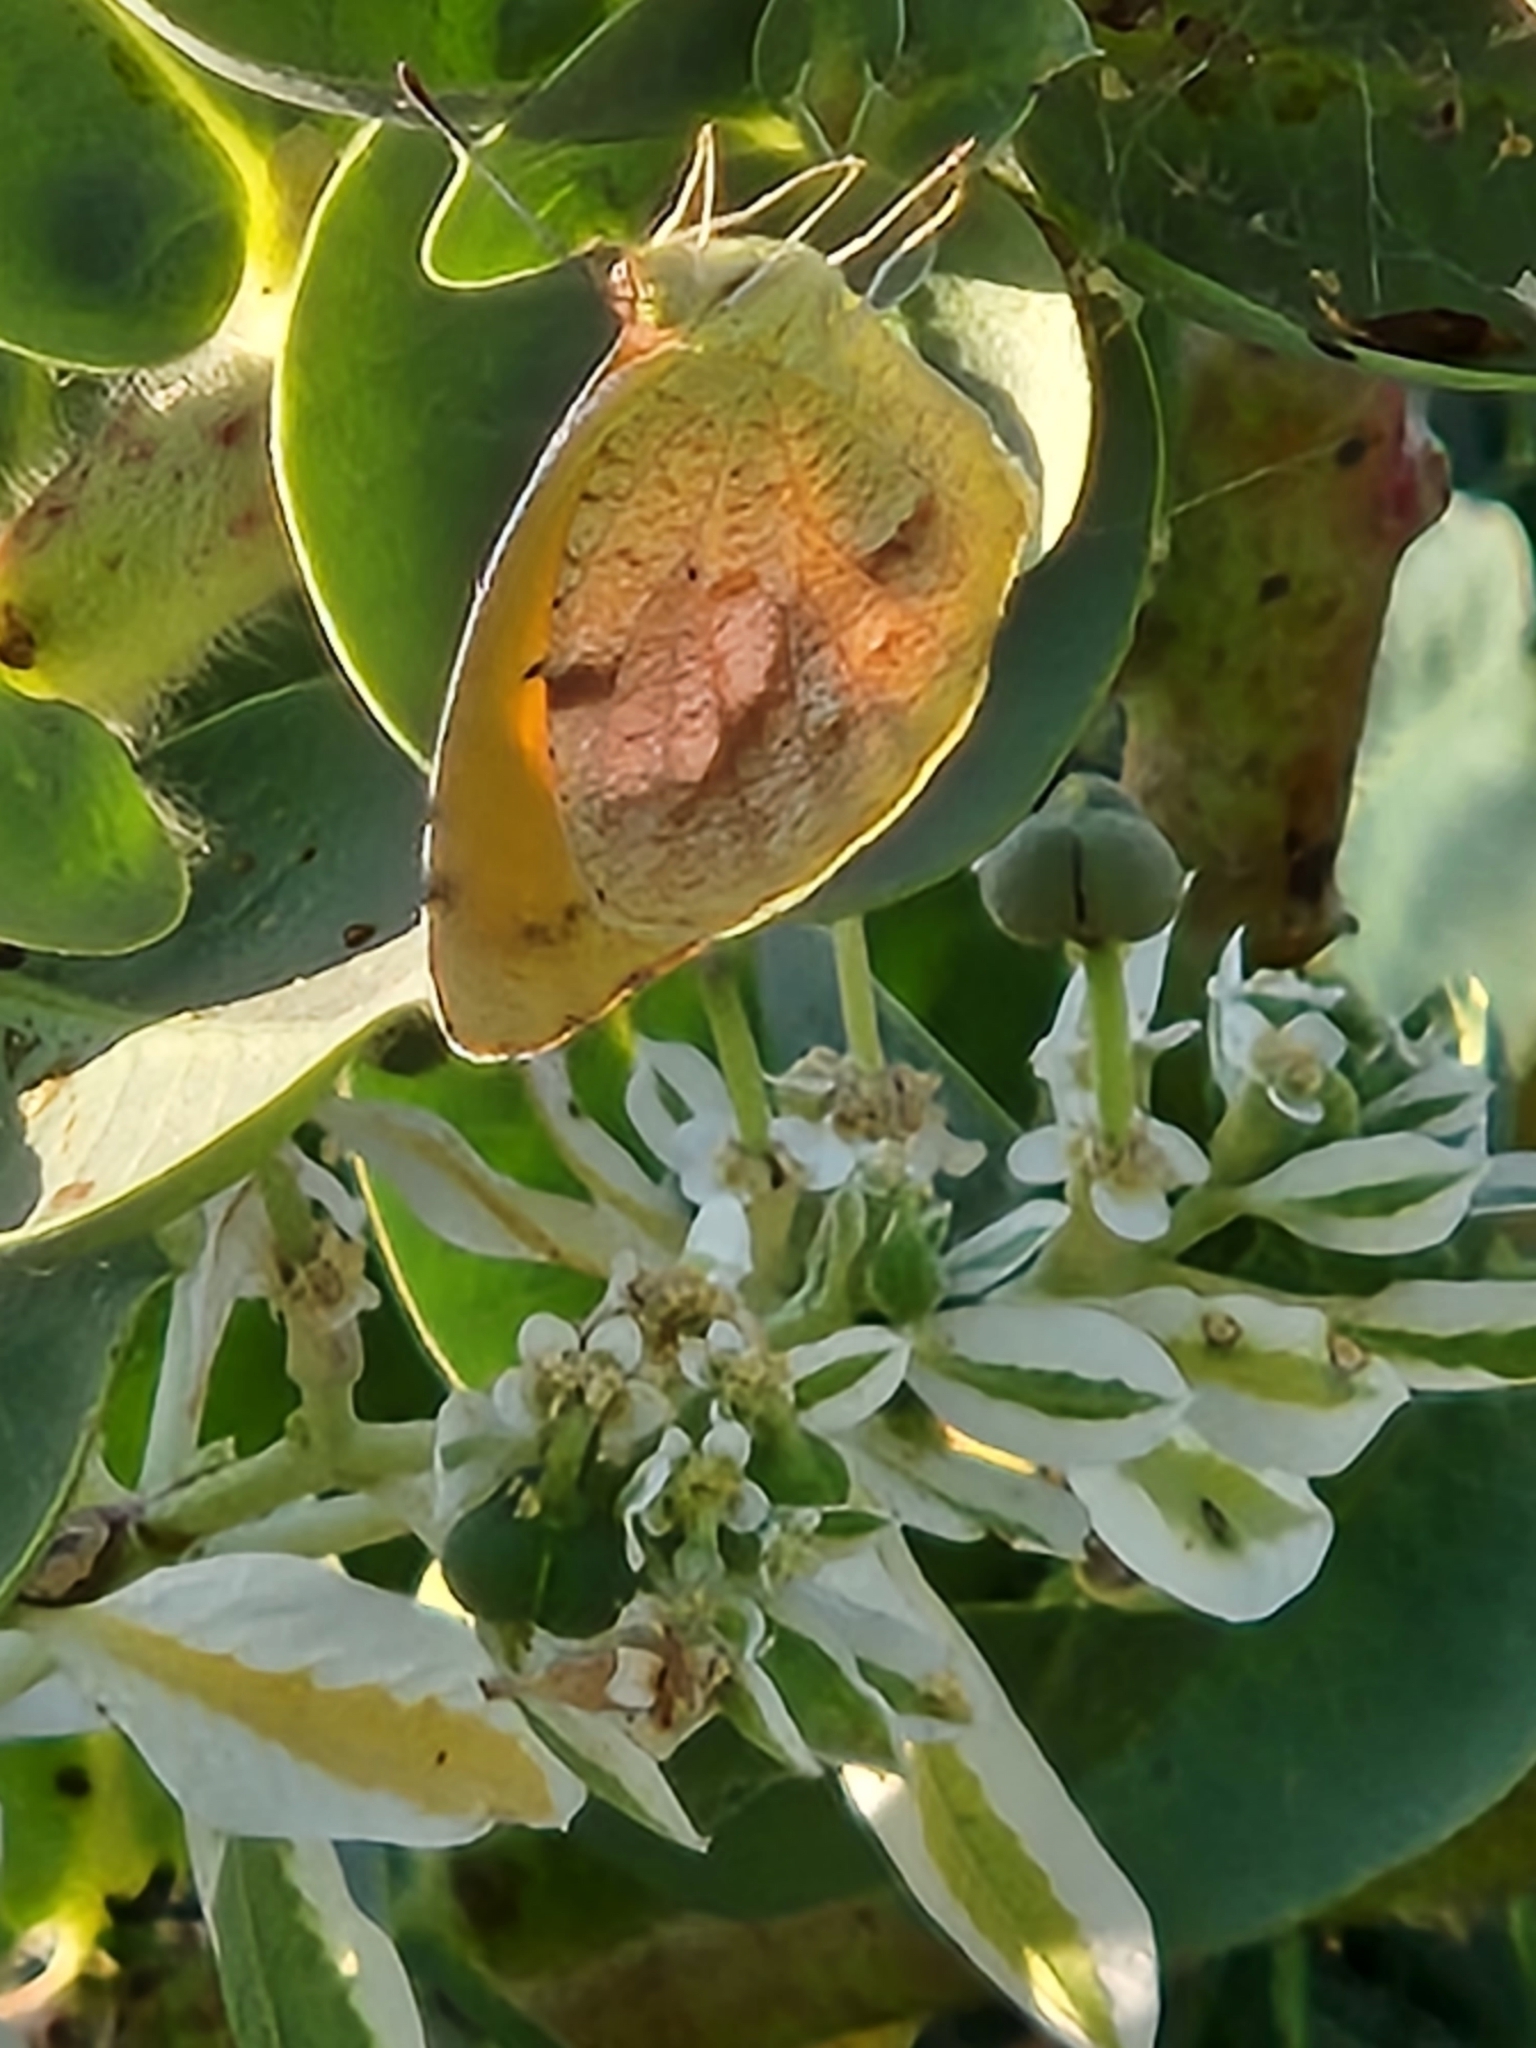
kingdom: Animalia
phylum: Arthropoda
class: Insecta
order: Lepidoptera
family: Pieridae
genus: Abaeis
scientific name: Abaeis nicippe
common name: Sleepy orange
